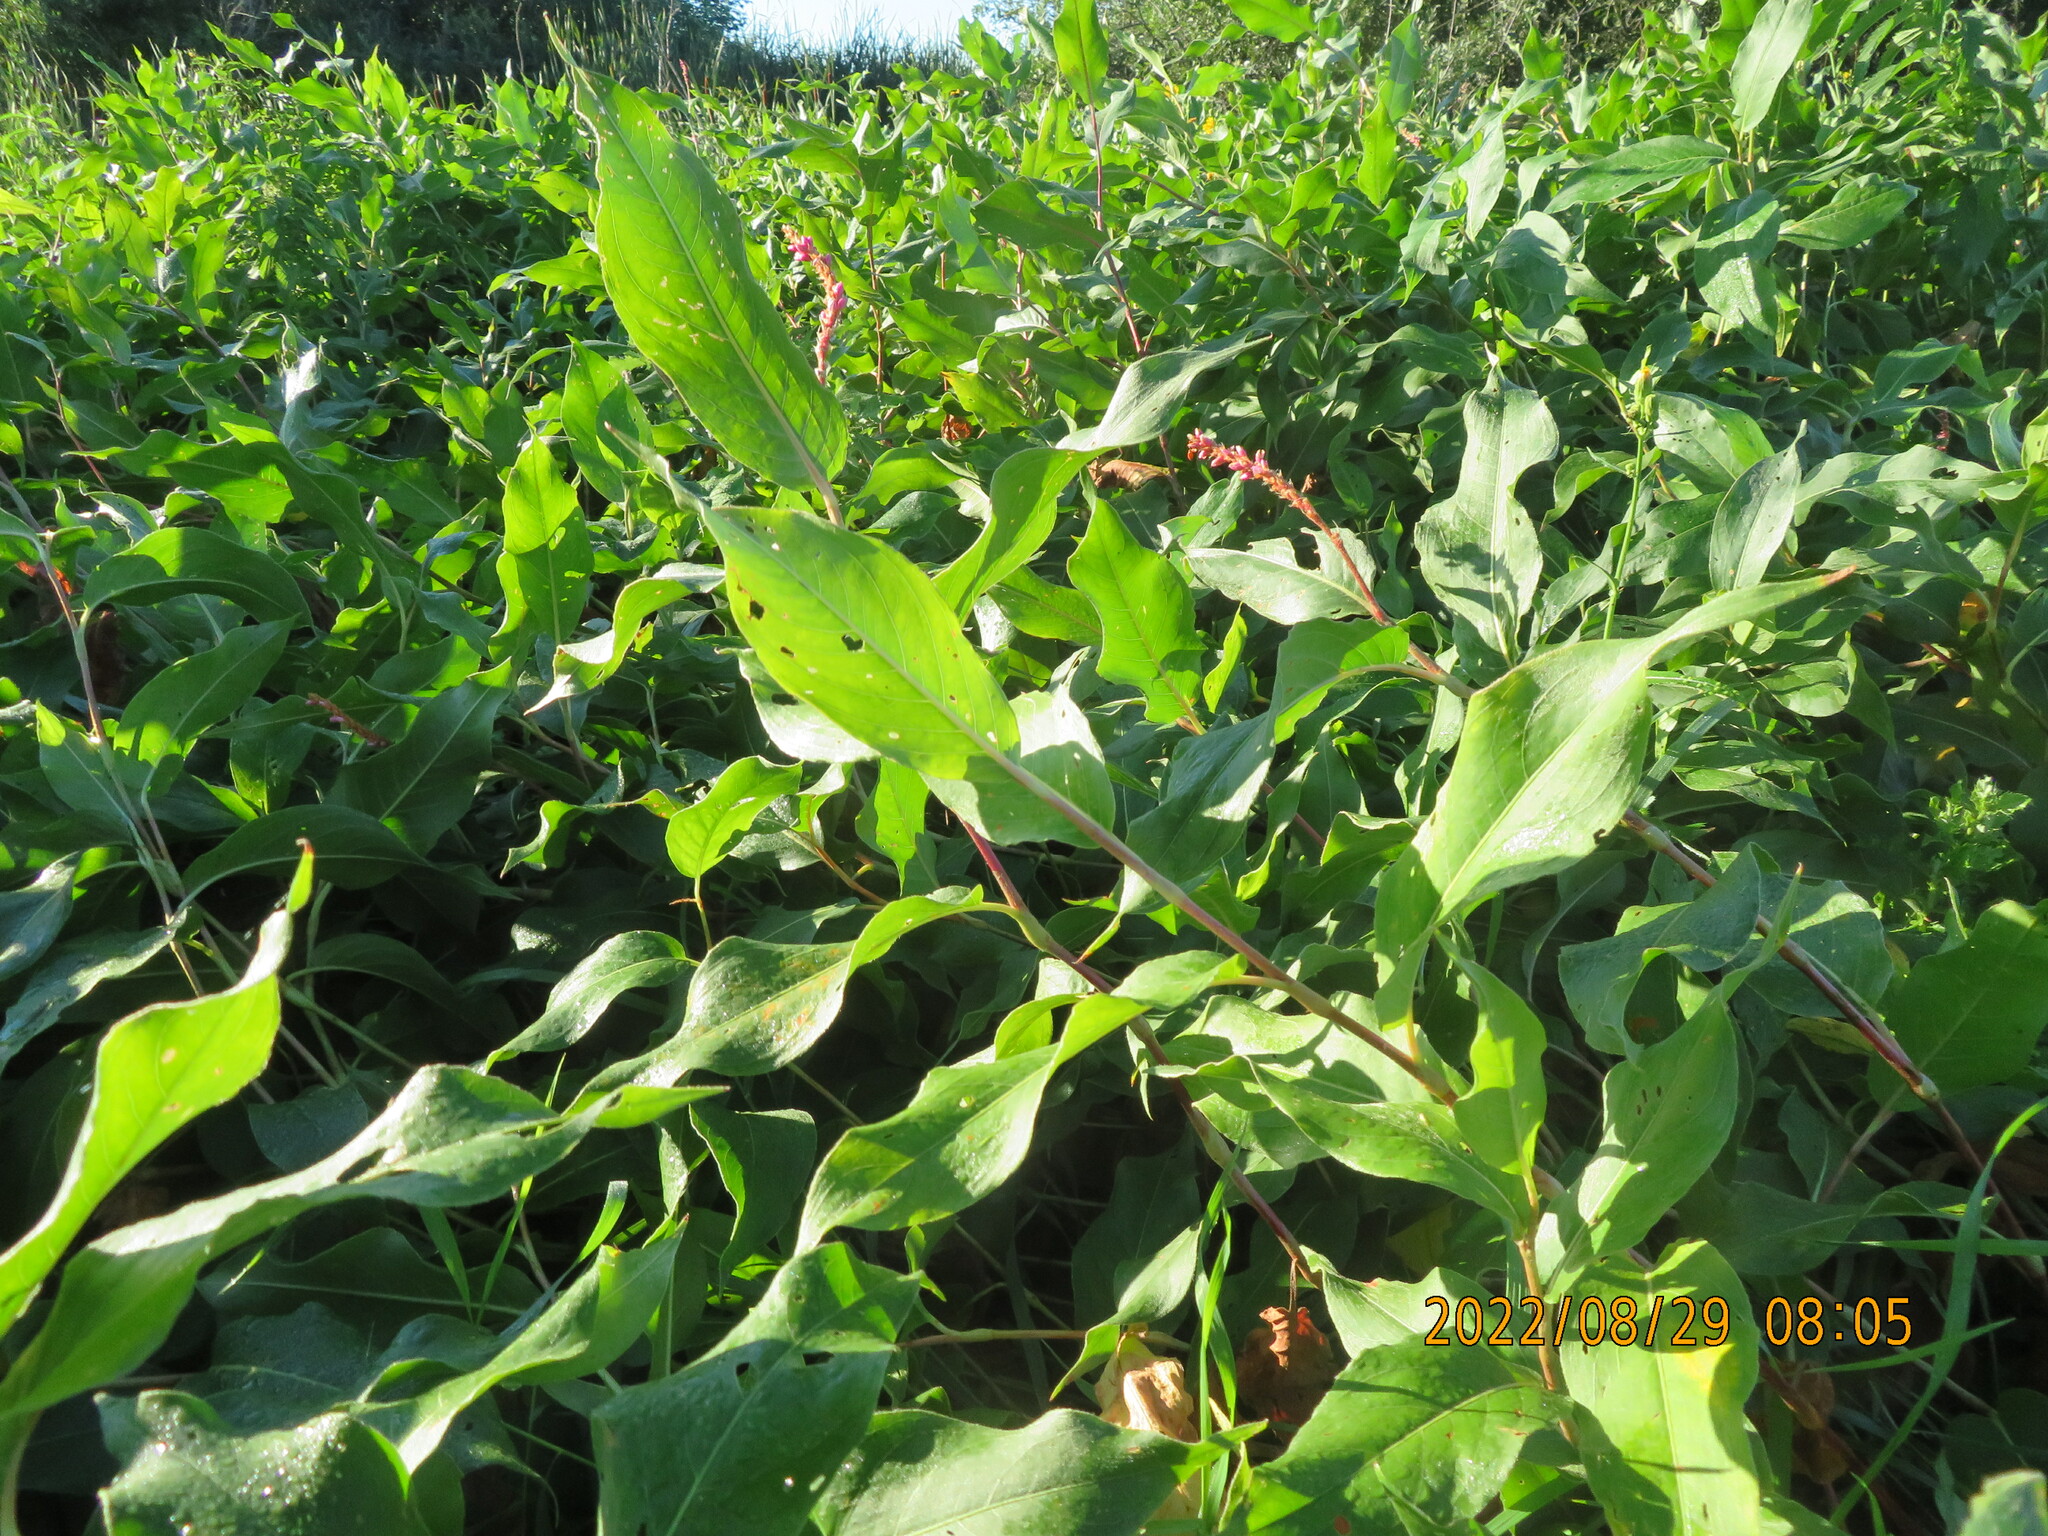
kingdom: Plantae
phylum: Tracheophyta
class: Magnoliopsida
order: Caryophyllales
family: Polygonaceae
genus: Persicaria
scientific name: Persicaria amphibia
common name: Amphibious bistort
